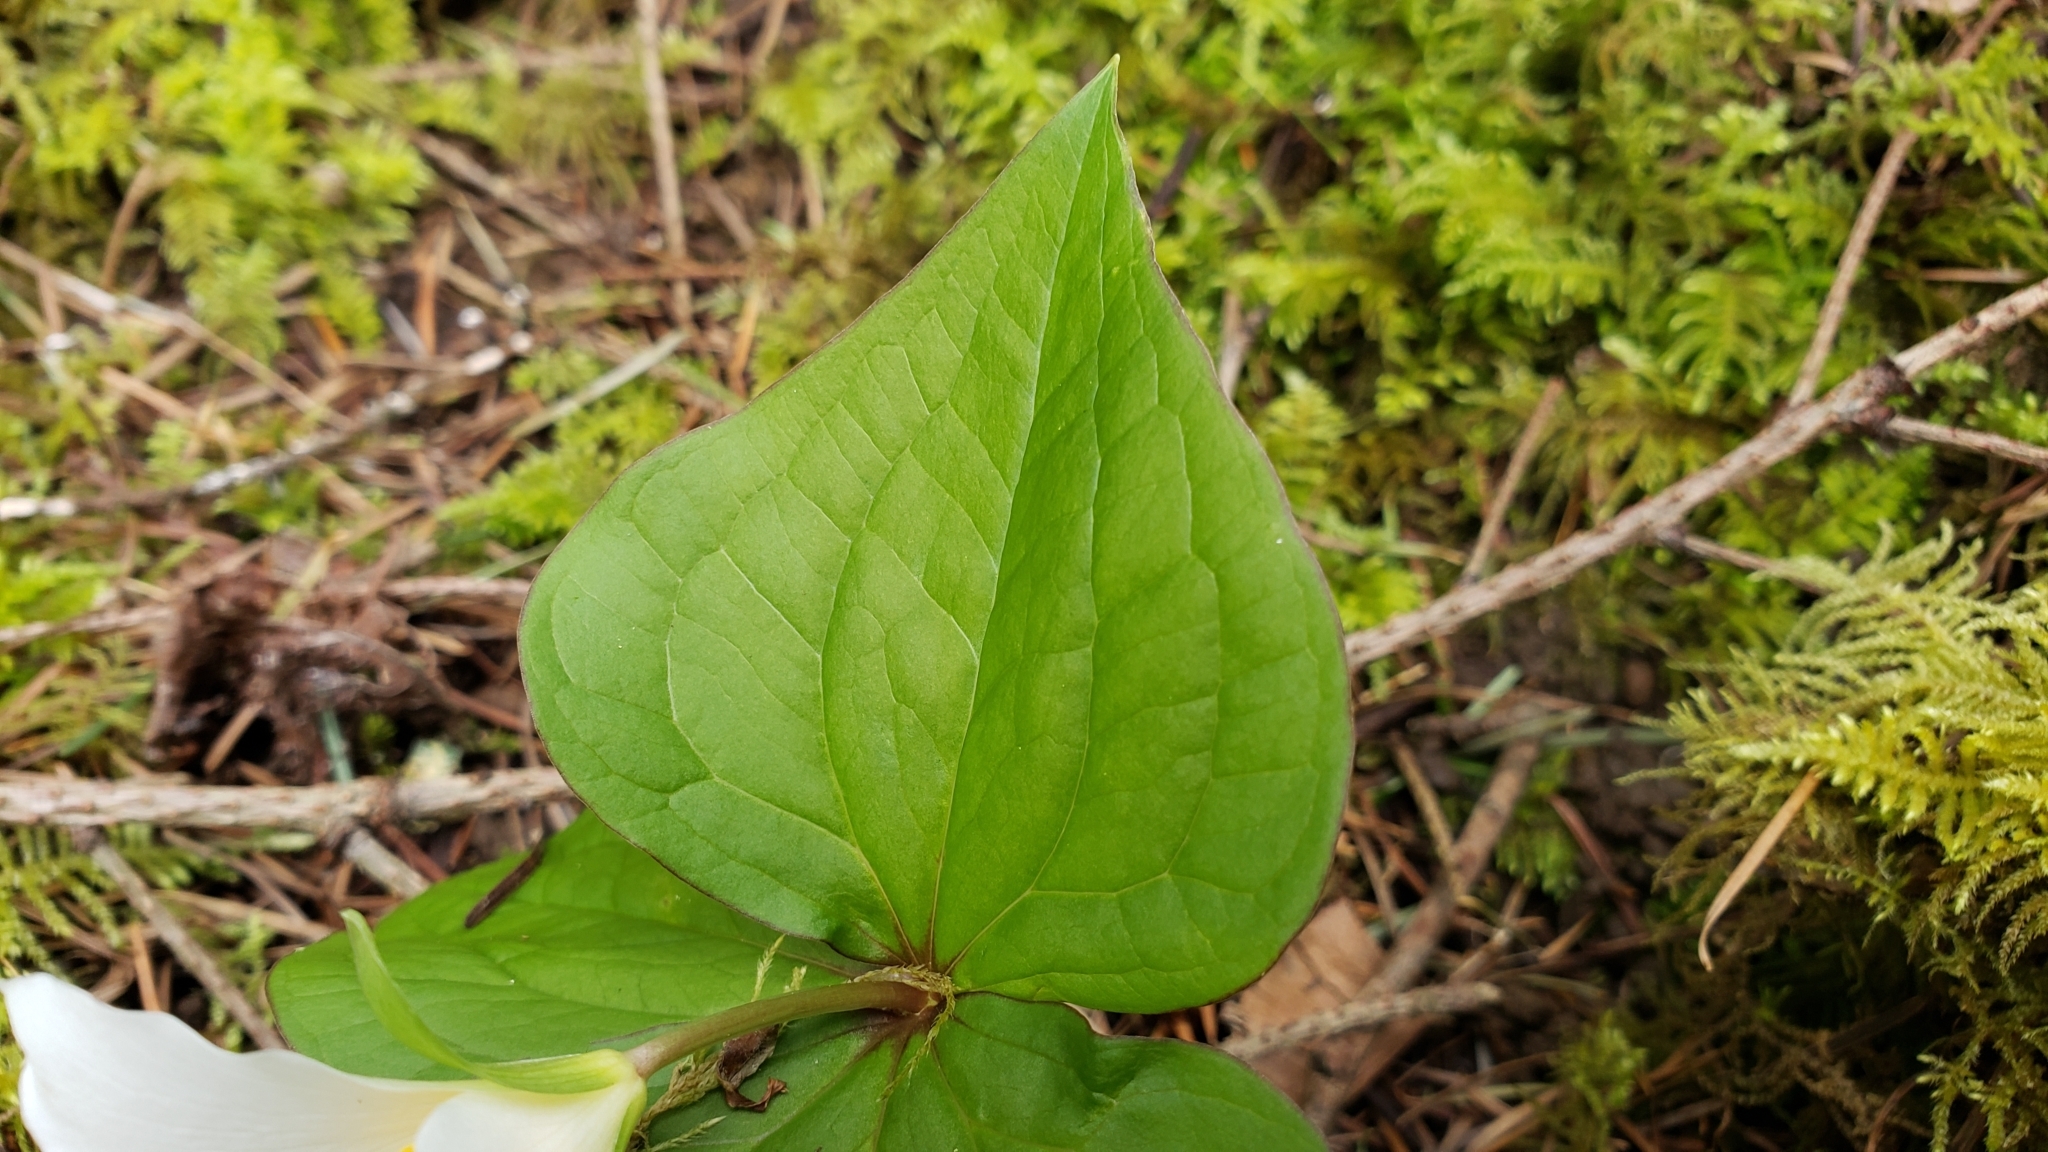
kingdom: Plantae
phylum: Tracheophyta
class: Liliopsida
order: Liliales
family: Melanthiaceae
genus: Trillium
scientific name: Trillium ovatum
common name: Pacific trillium
